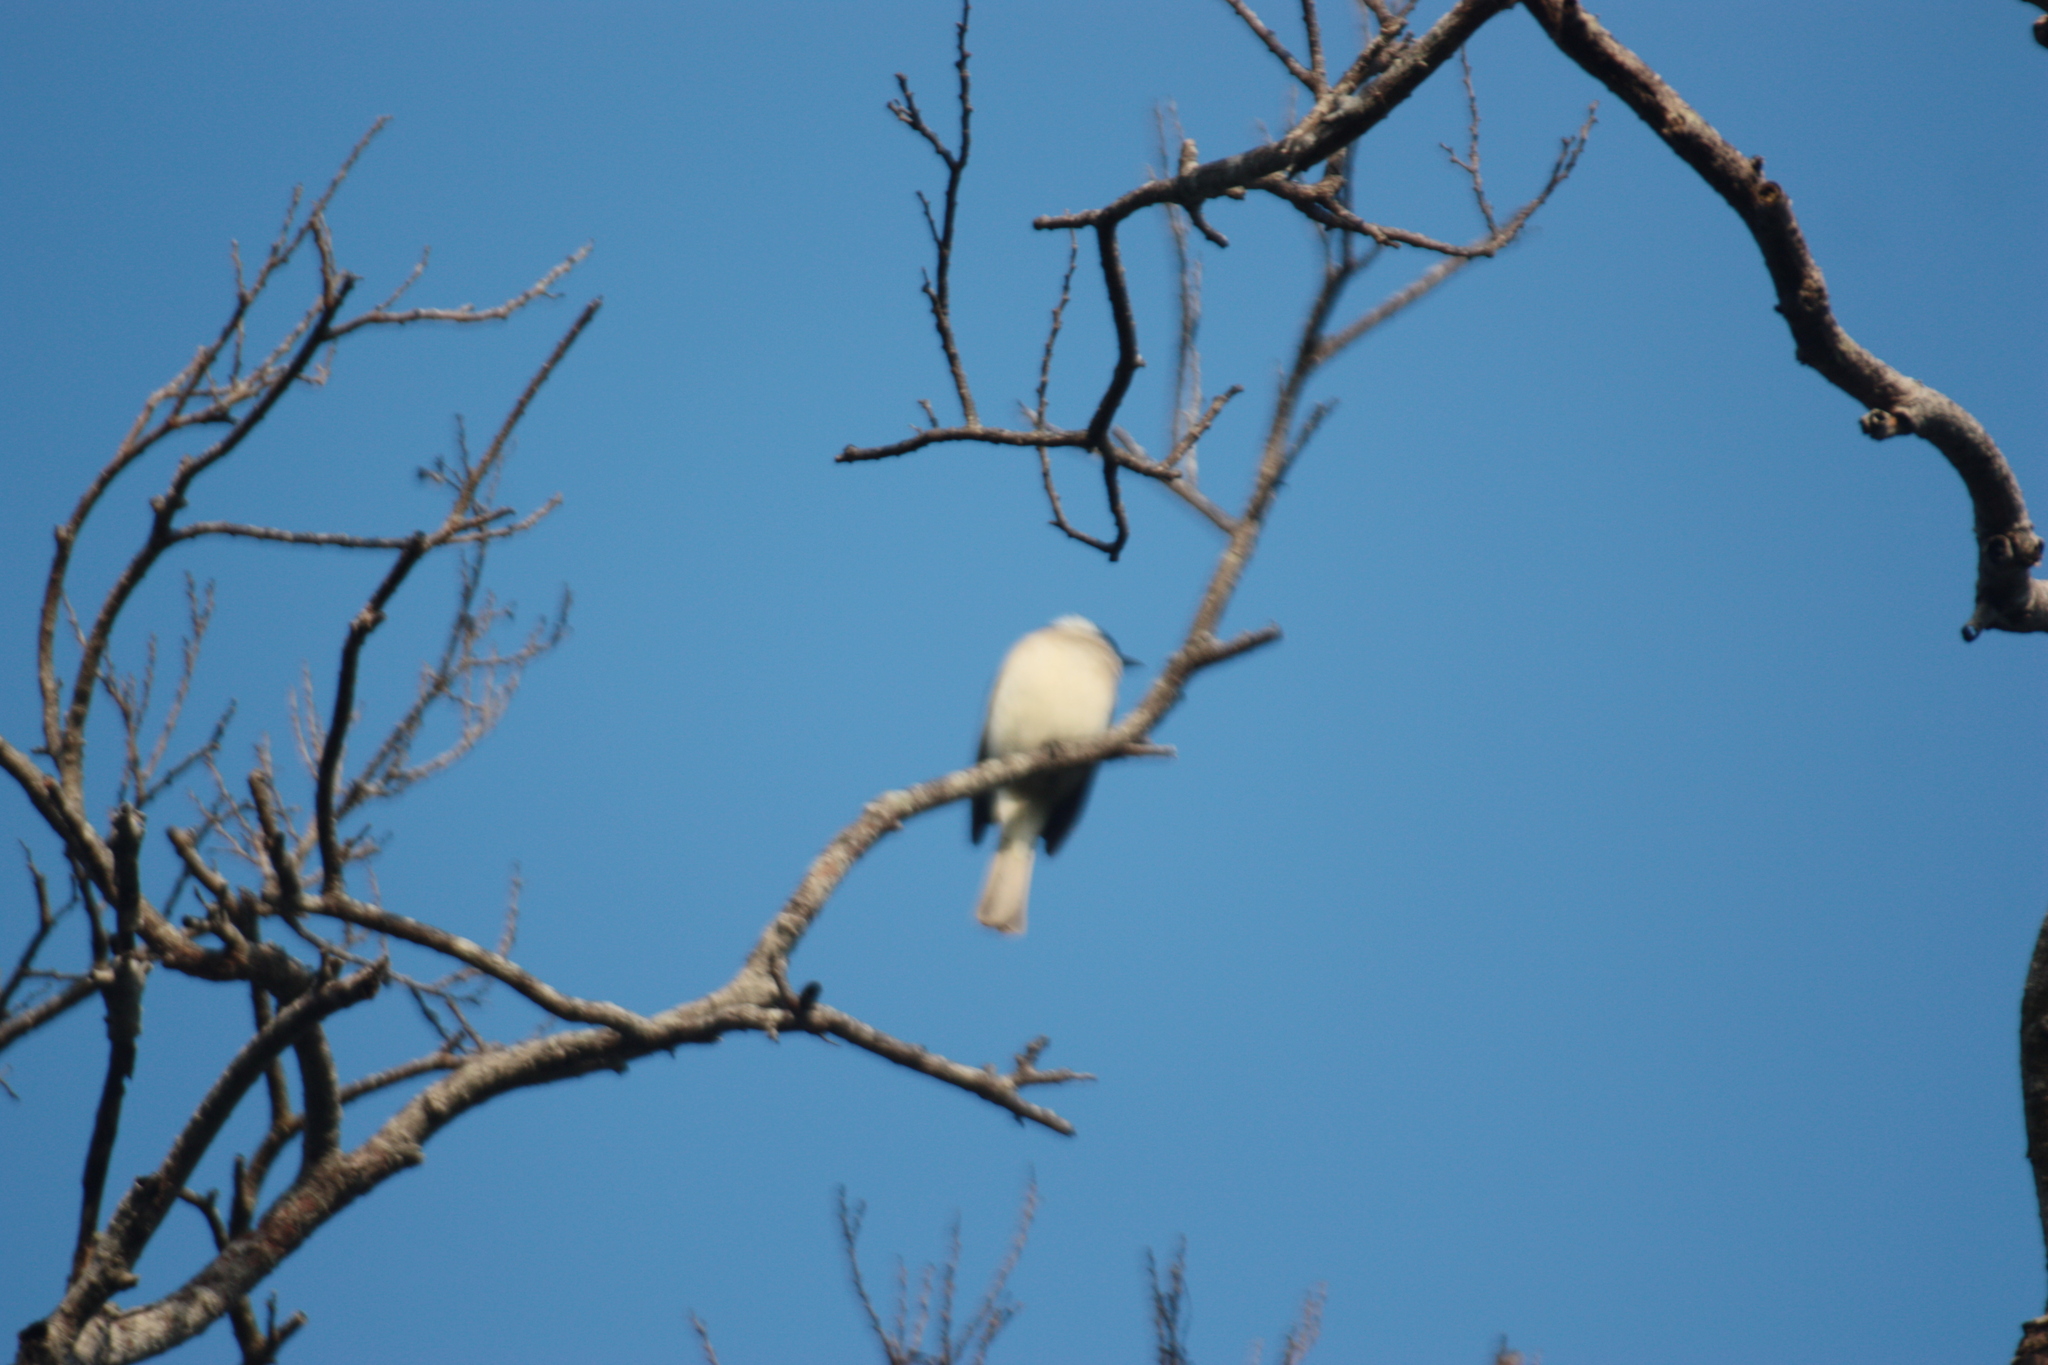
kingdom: Animalia
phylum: Chordata
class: Aves
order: Passeriformes
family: Pycnonotidae
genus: Pycnonotus
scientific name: Pycnonotus sinensis
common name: Light-vented bulbul
